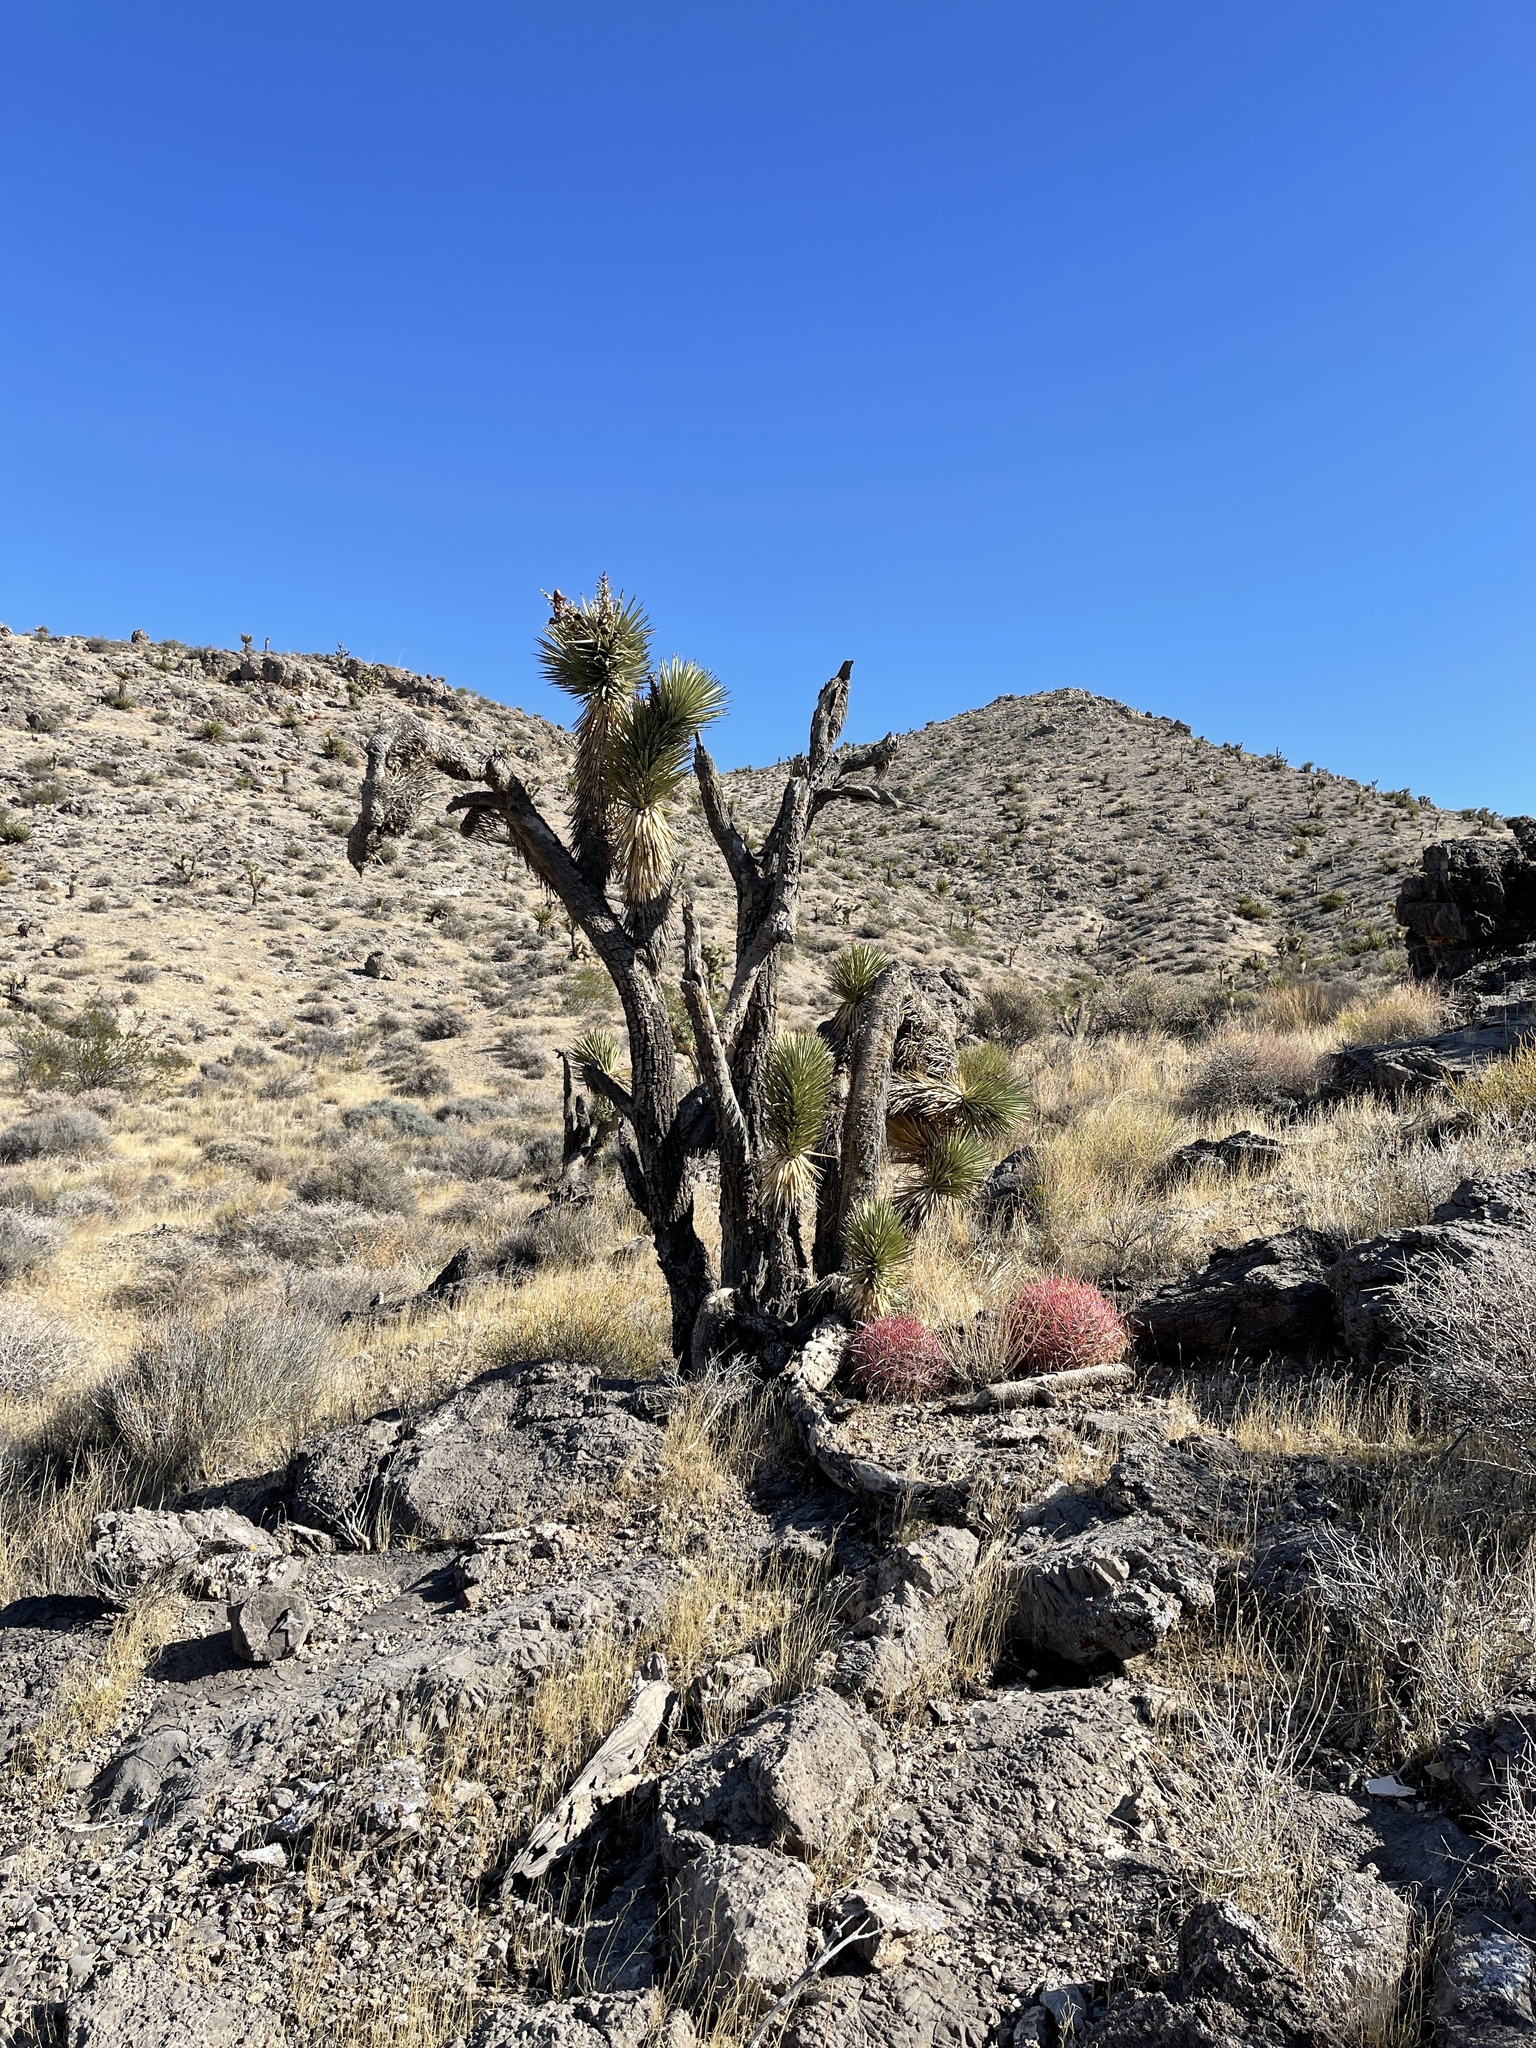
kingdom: Plantae
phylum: Tracheophyta
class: Liliopsida
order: Asparagales
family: Asparagaceae
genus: Yucca
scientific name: Yucca brevifolia
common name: Joshua tree
